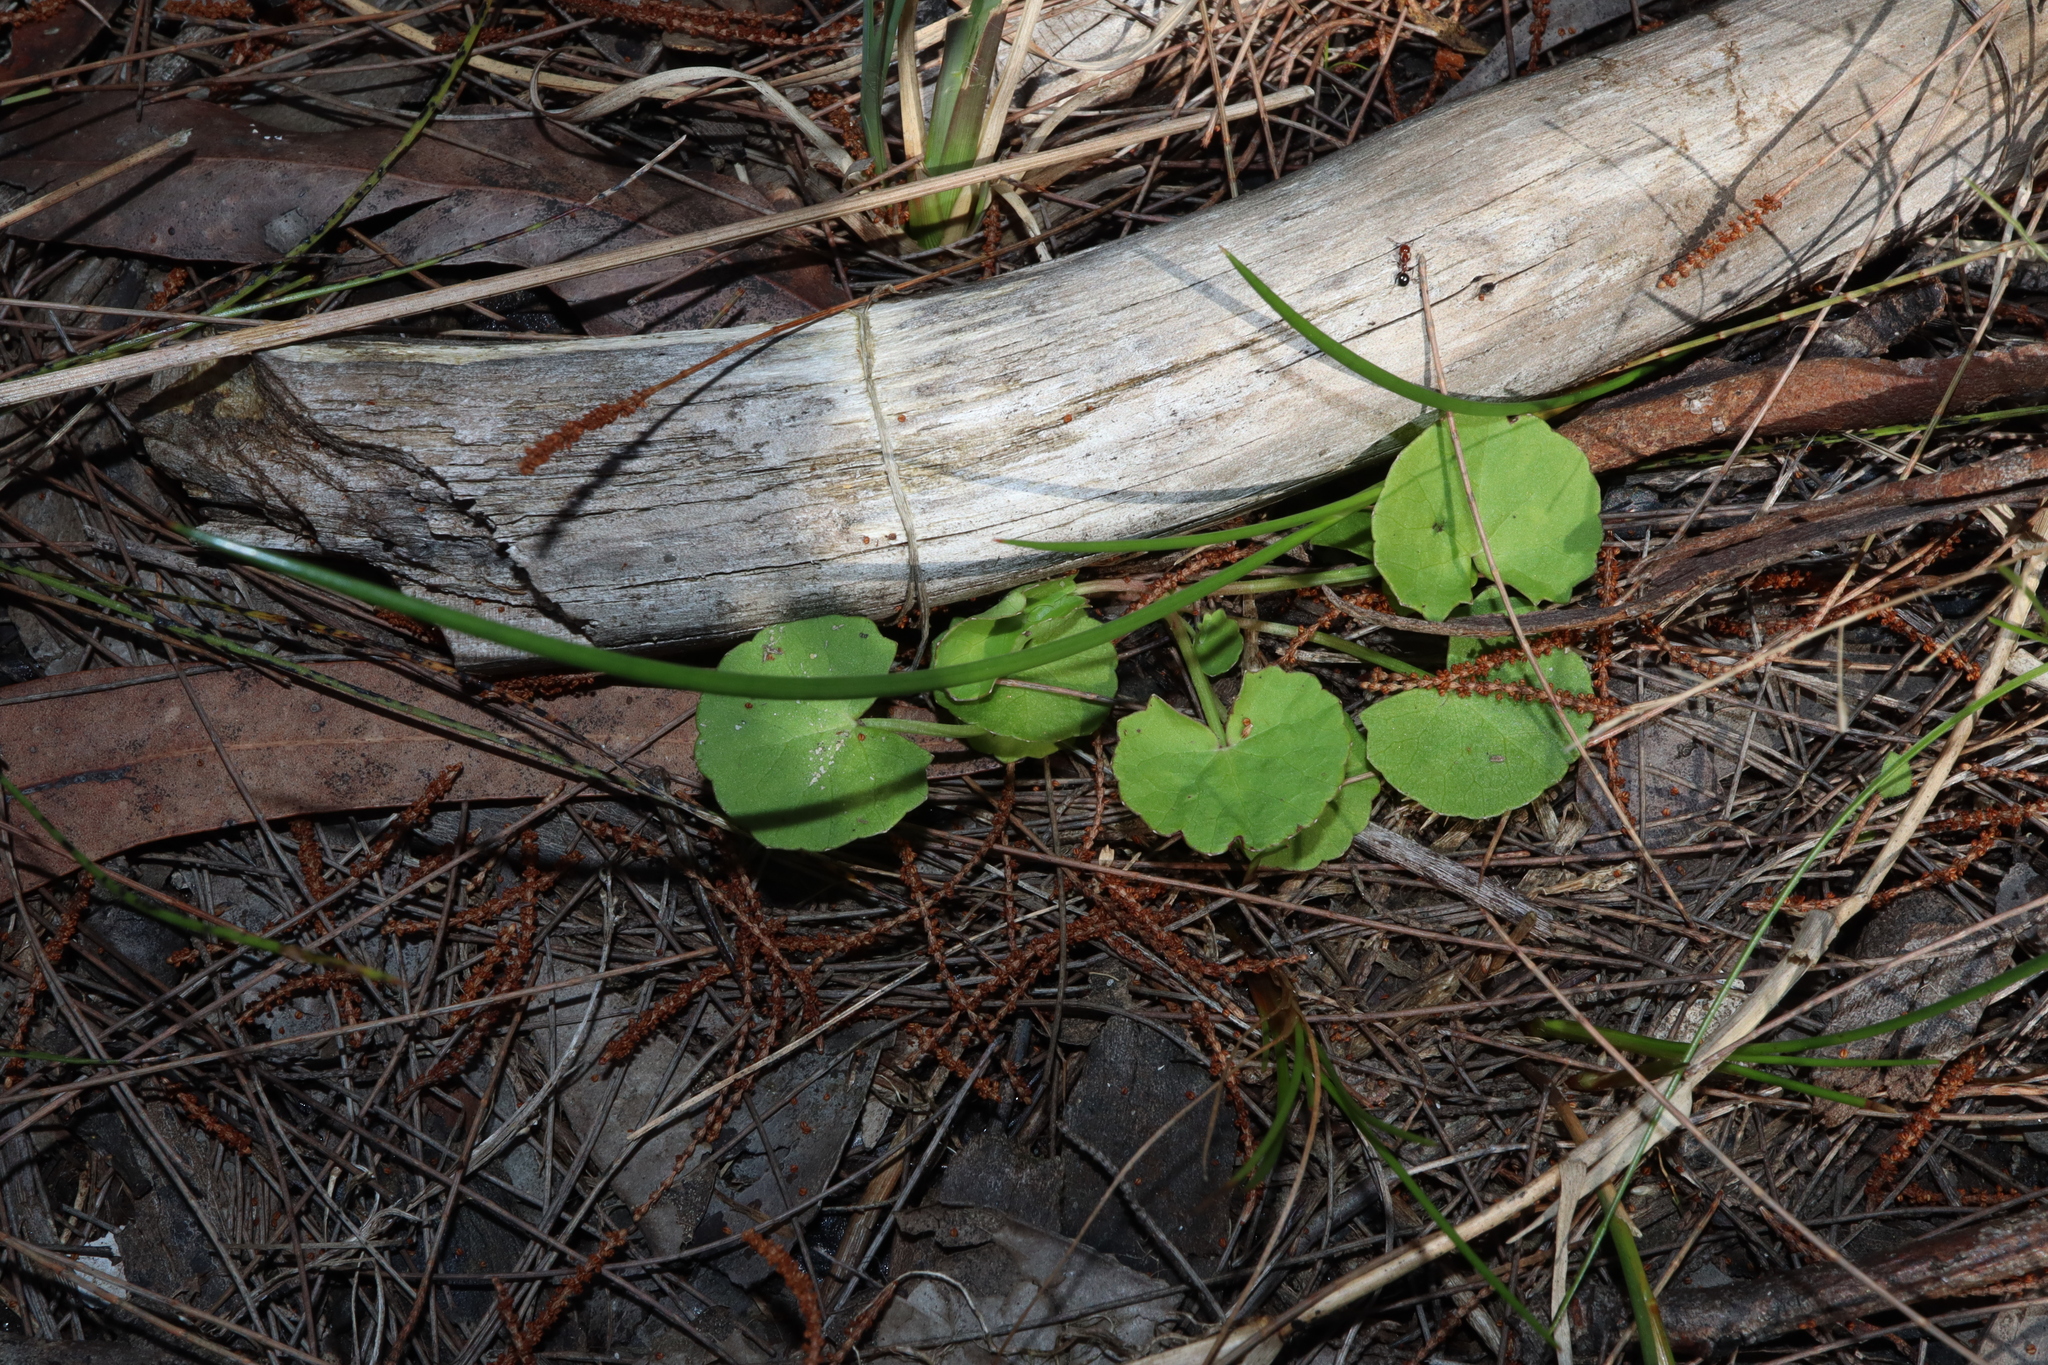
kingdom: Plantae
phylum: Tracheophyta
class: Magnoliopsida
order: Apiales
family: Apiaceae
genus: Centella
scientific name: Centella asiatica
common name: Spadeleaf
